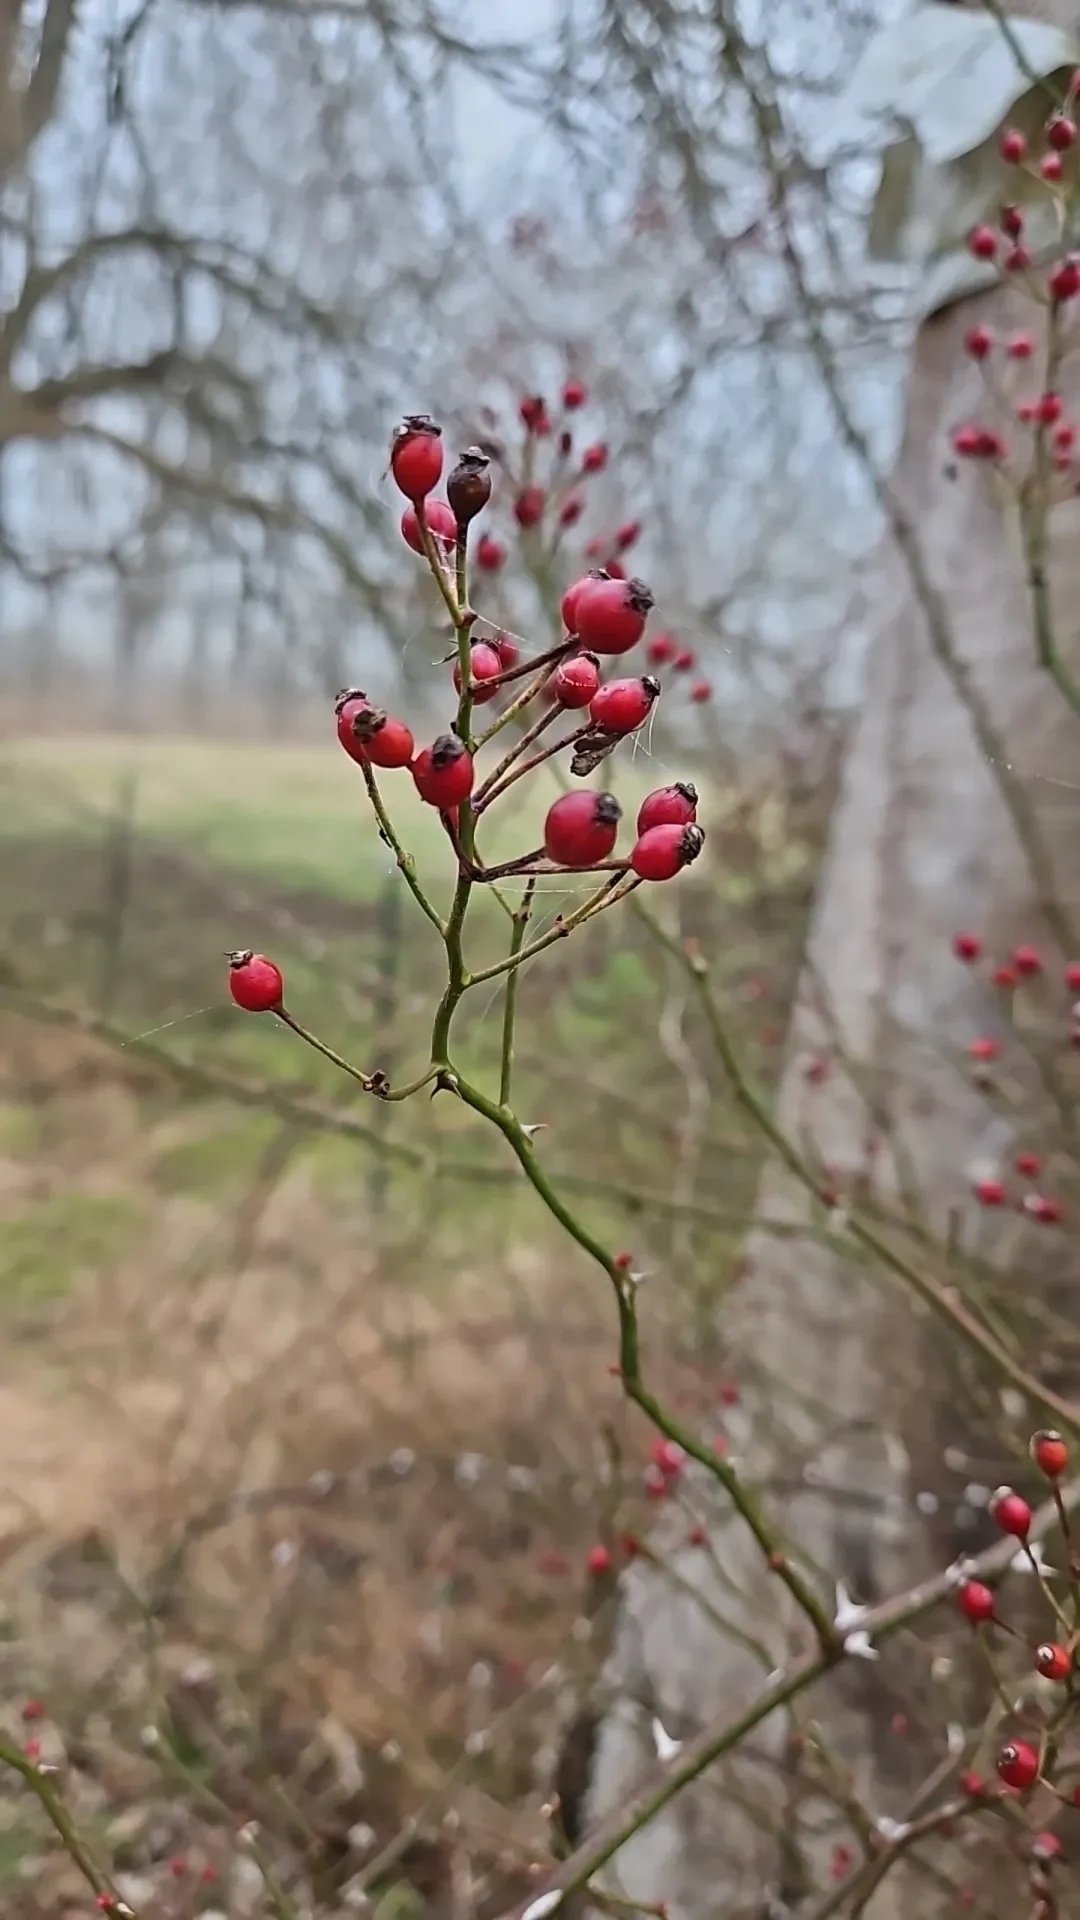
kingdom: Plantae
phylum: Tracheophyta
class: Magnoliopsida
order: Rosales
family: Rosaceae
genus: Rosa
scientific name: Rosa multiflora
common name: Multiflora rose
